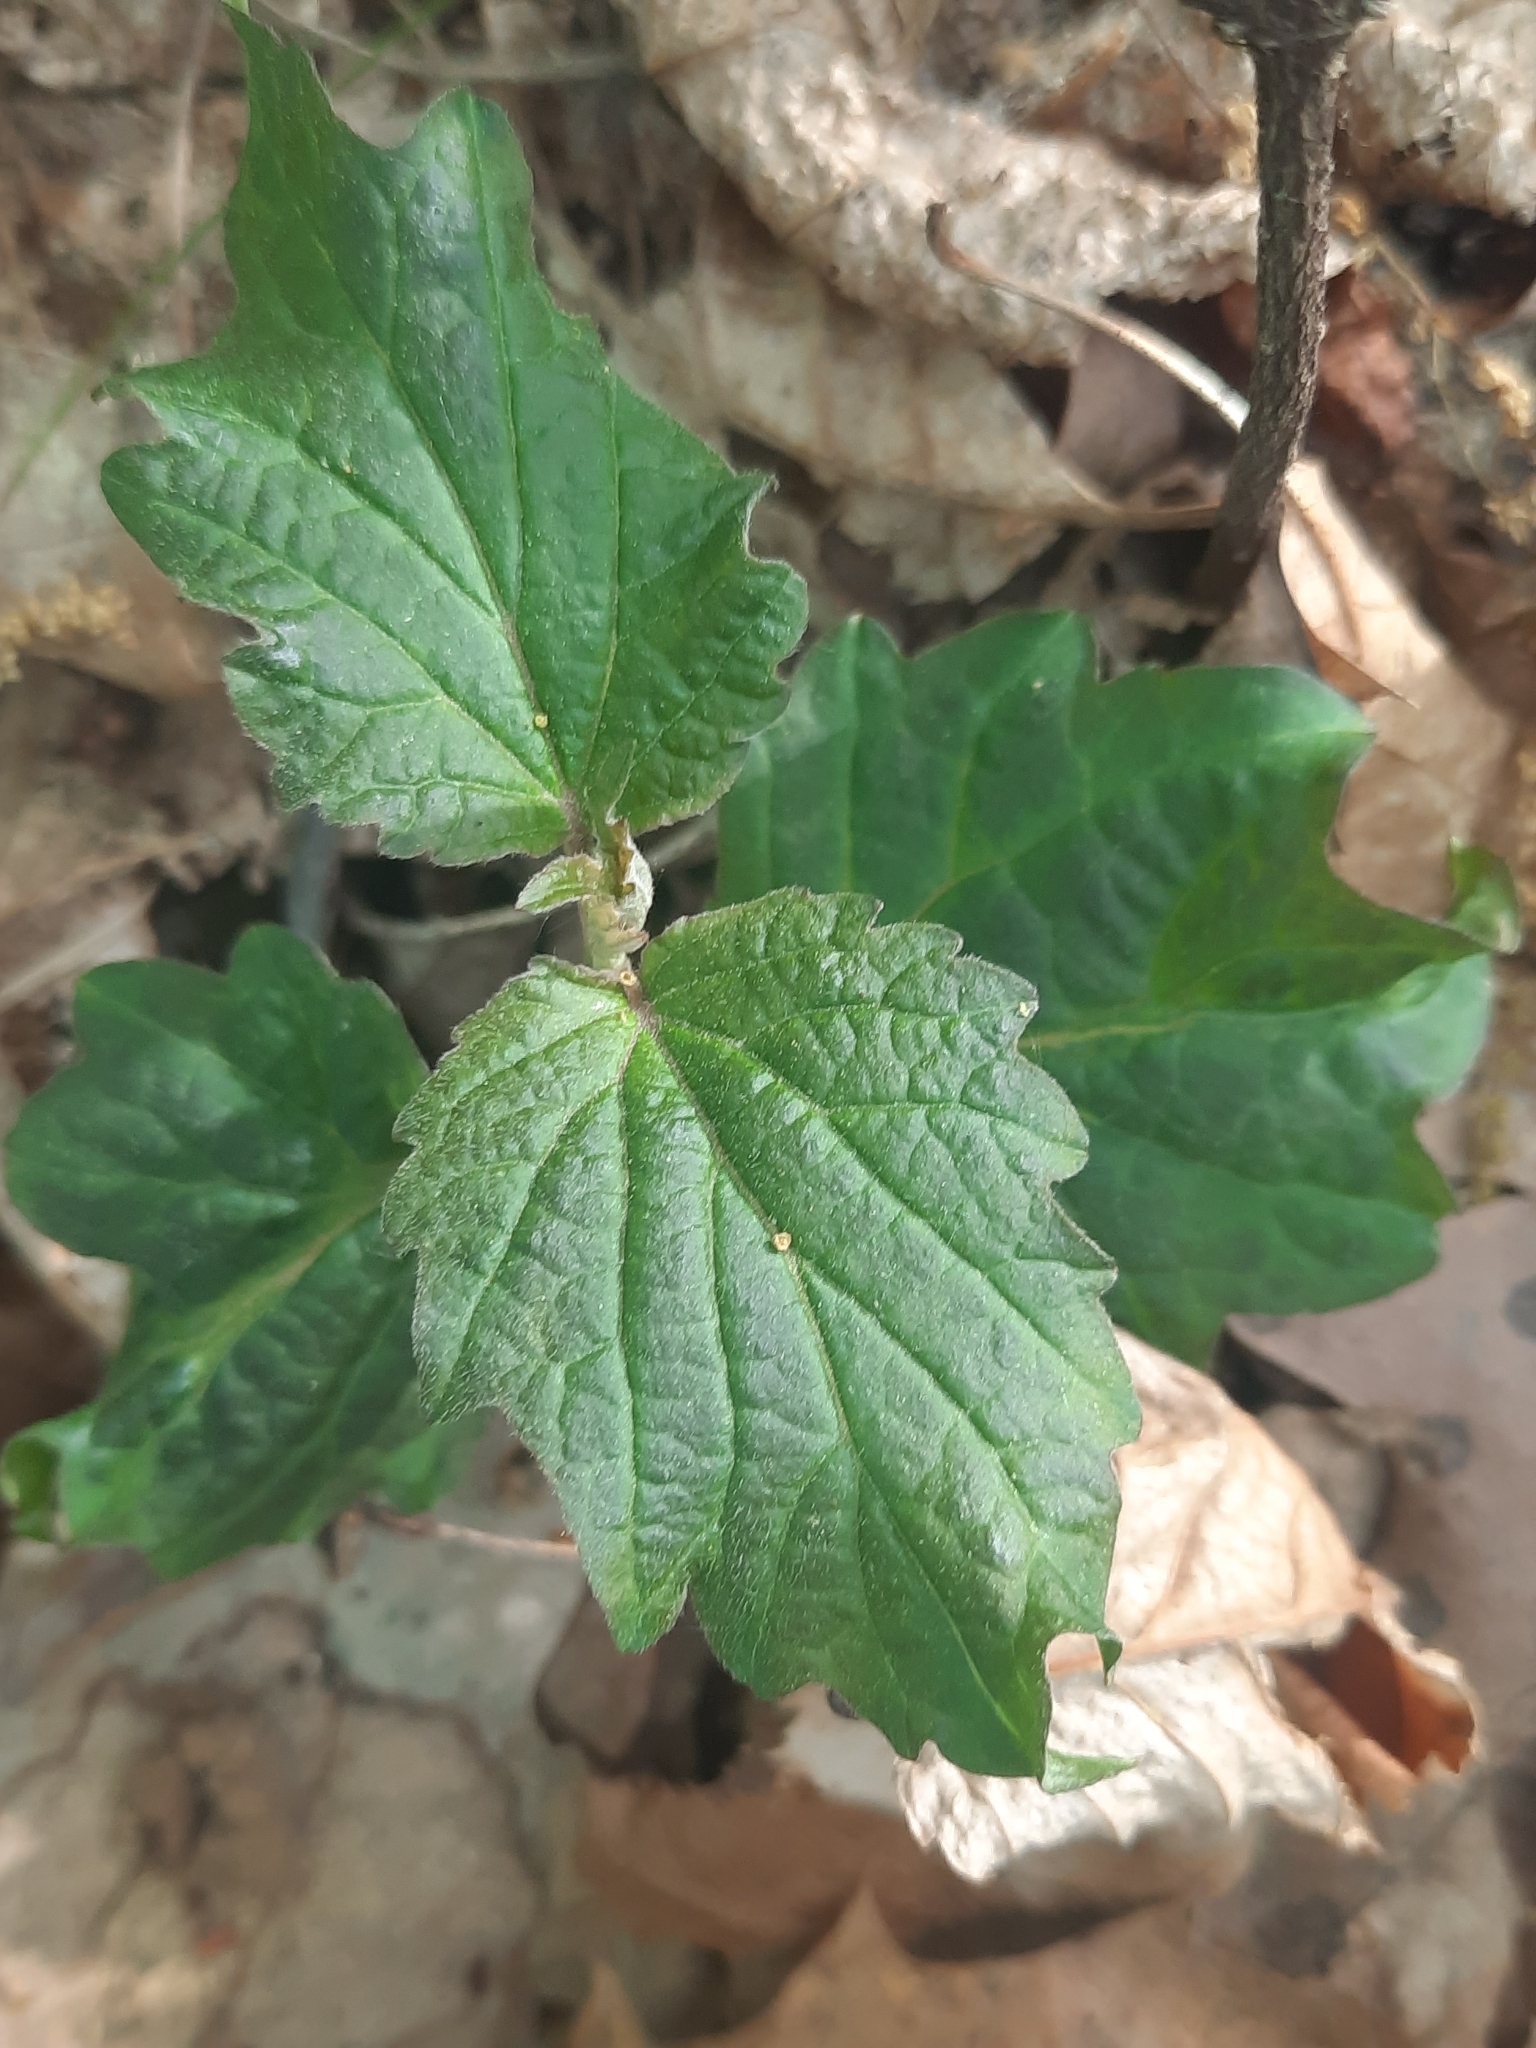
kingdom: Plantae
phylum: Tracheophyta
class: Magnoliopsida
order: Dipsacales
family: Viburnaceae
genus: Viburnum
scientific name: Viburnum acerifolium
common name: Dockmackie
